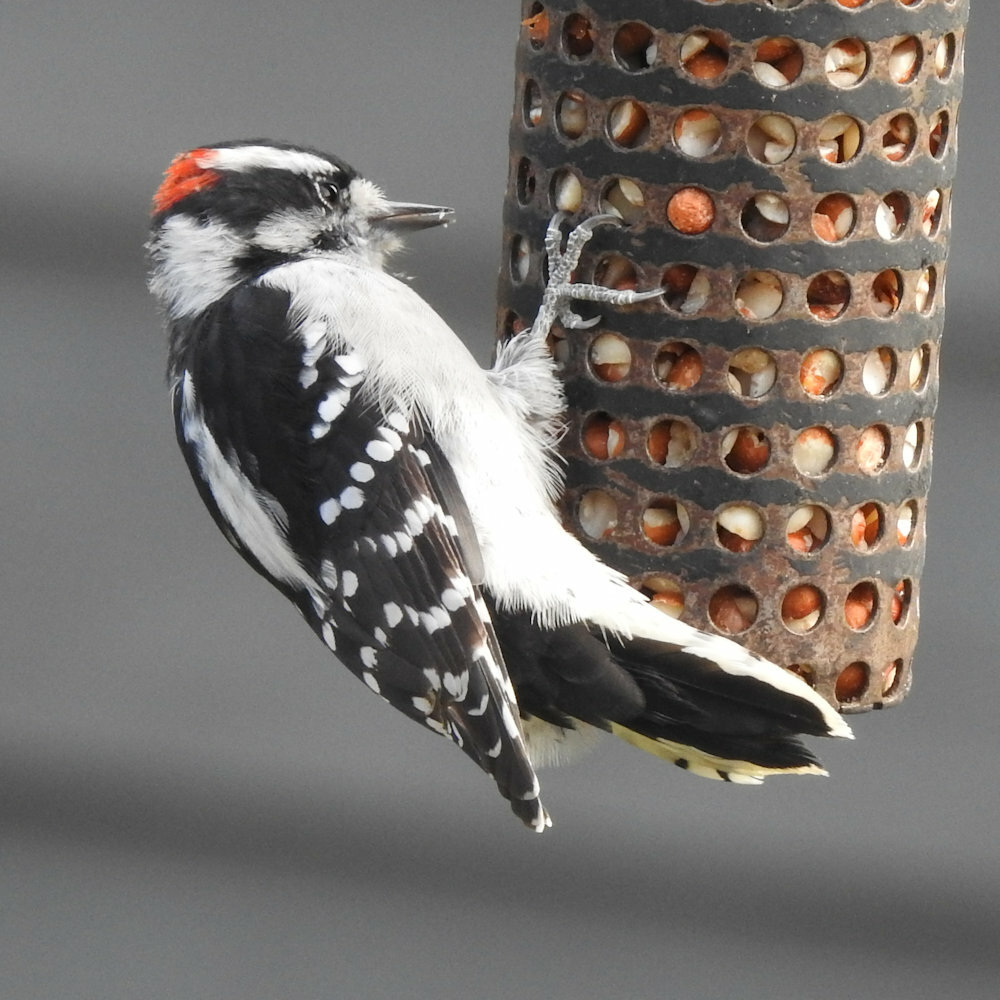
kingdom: Animalia
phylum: Chordata
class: Aves
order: Piciformes
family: Picidae
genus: Dryobates
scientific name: Dryobates pubescens
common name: Downy woodpecker
